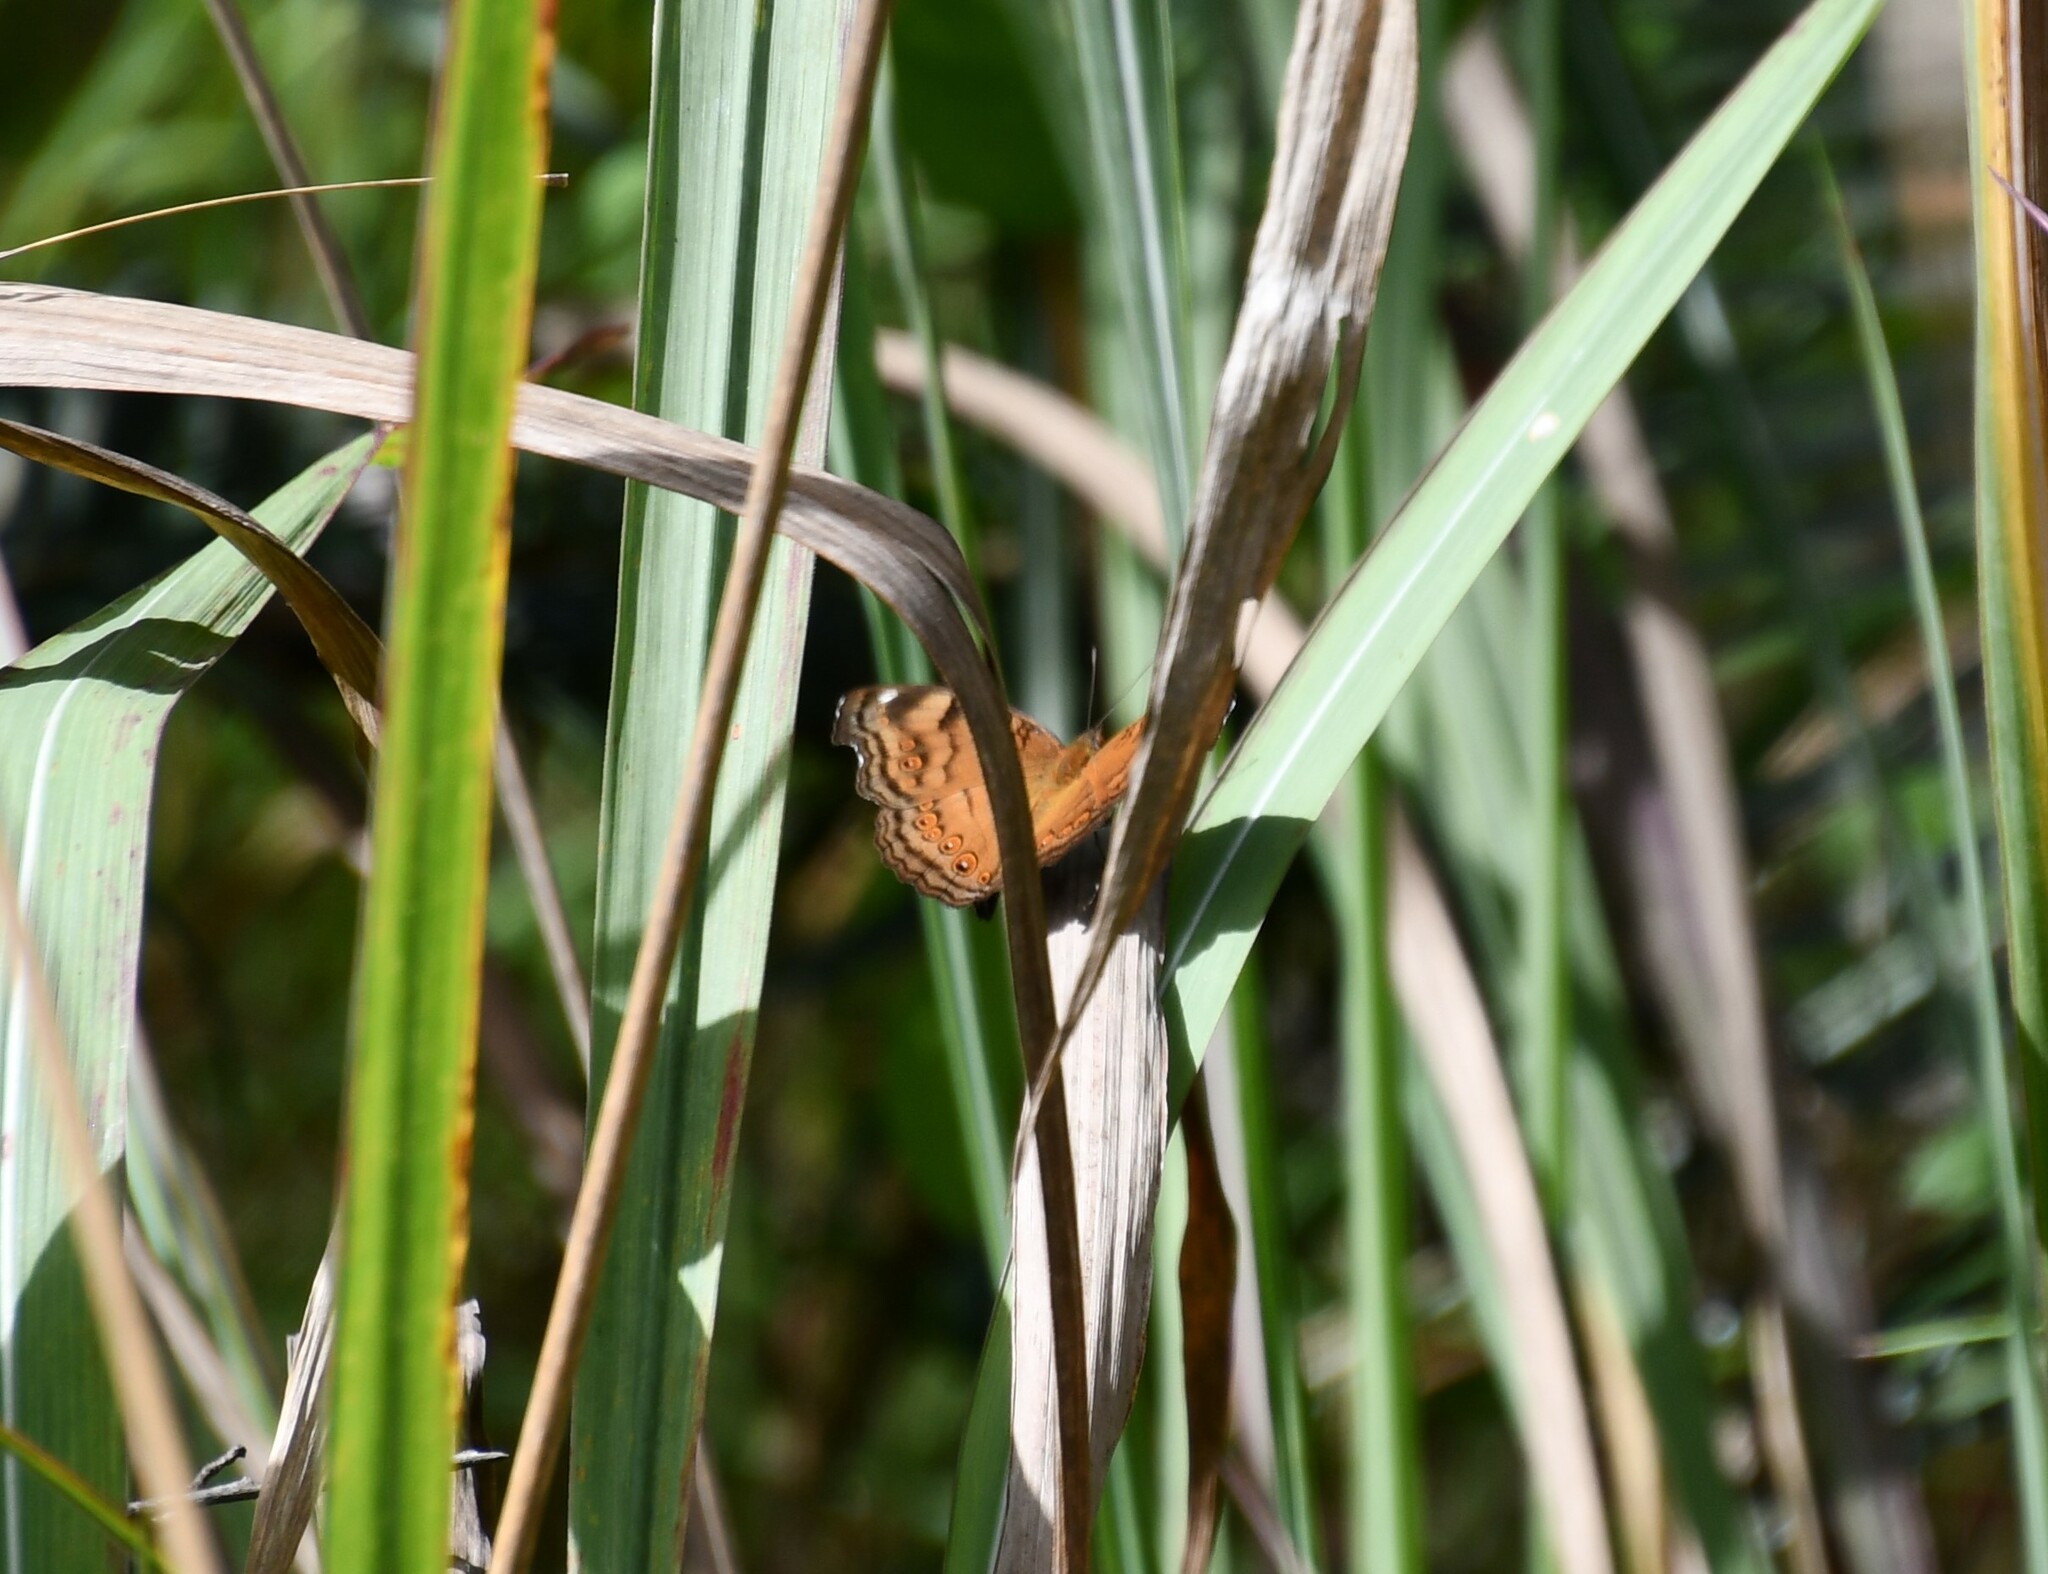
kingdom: Animalia
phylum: Arthropoda
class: Insecta
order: Lepidoptera
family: Nymphalidae
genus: Junonia
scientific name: Junonia hedonia
